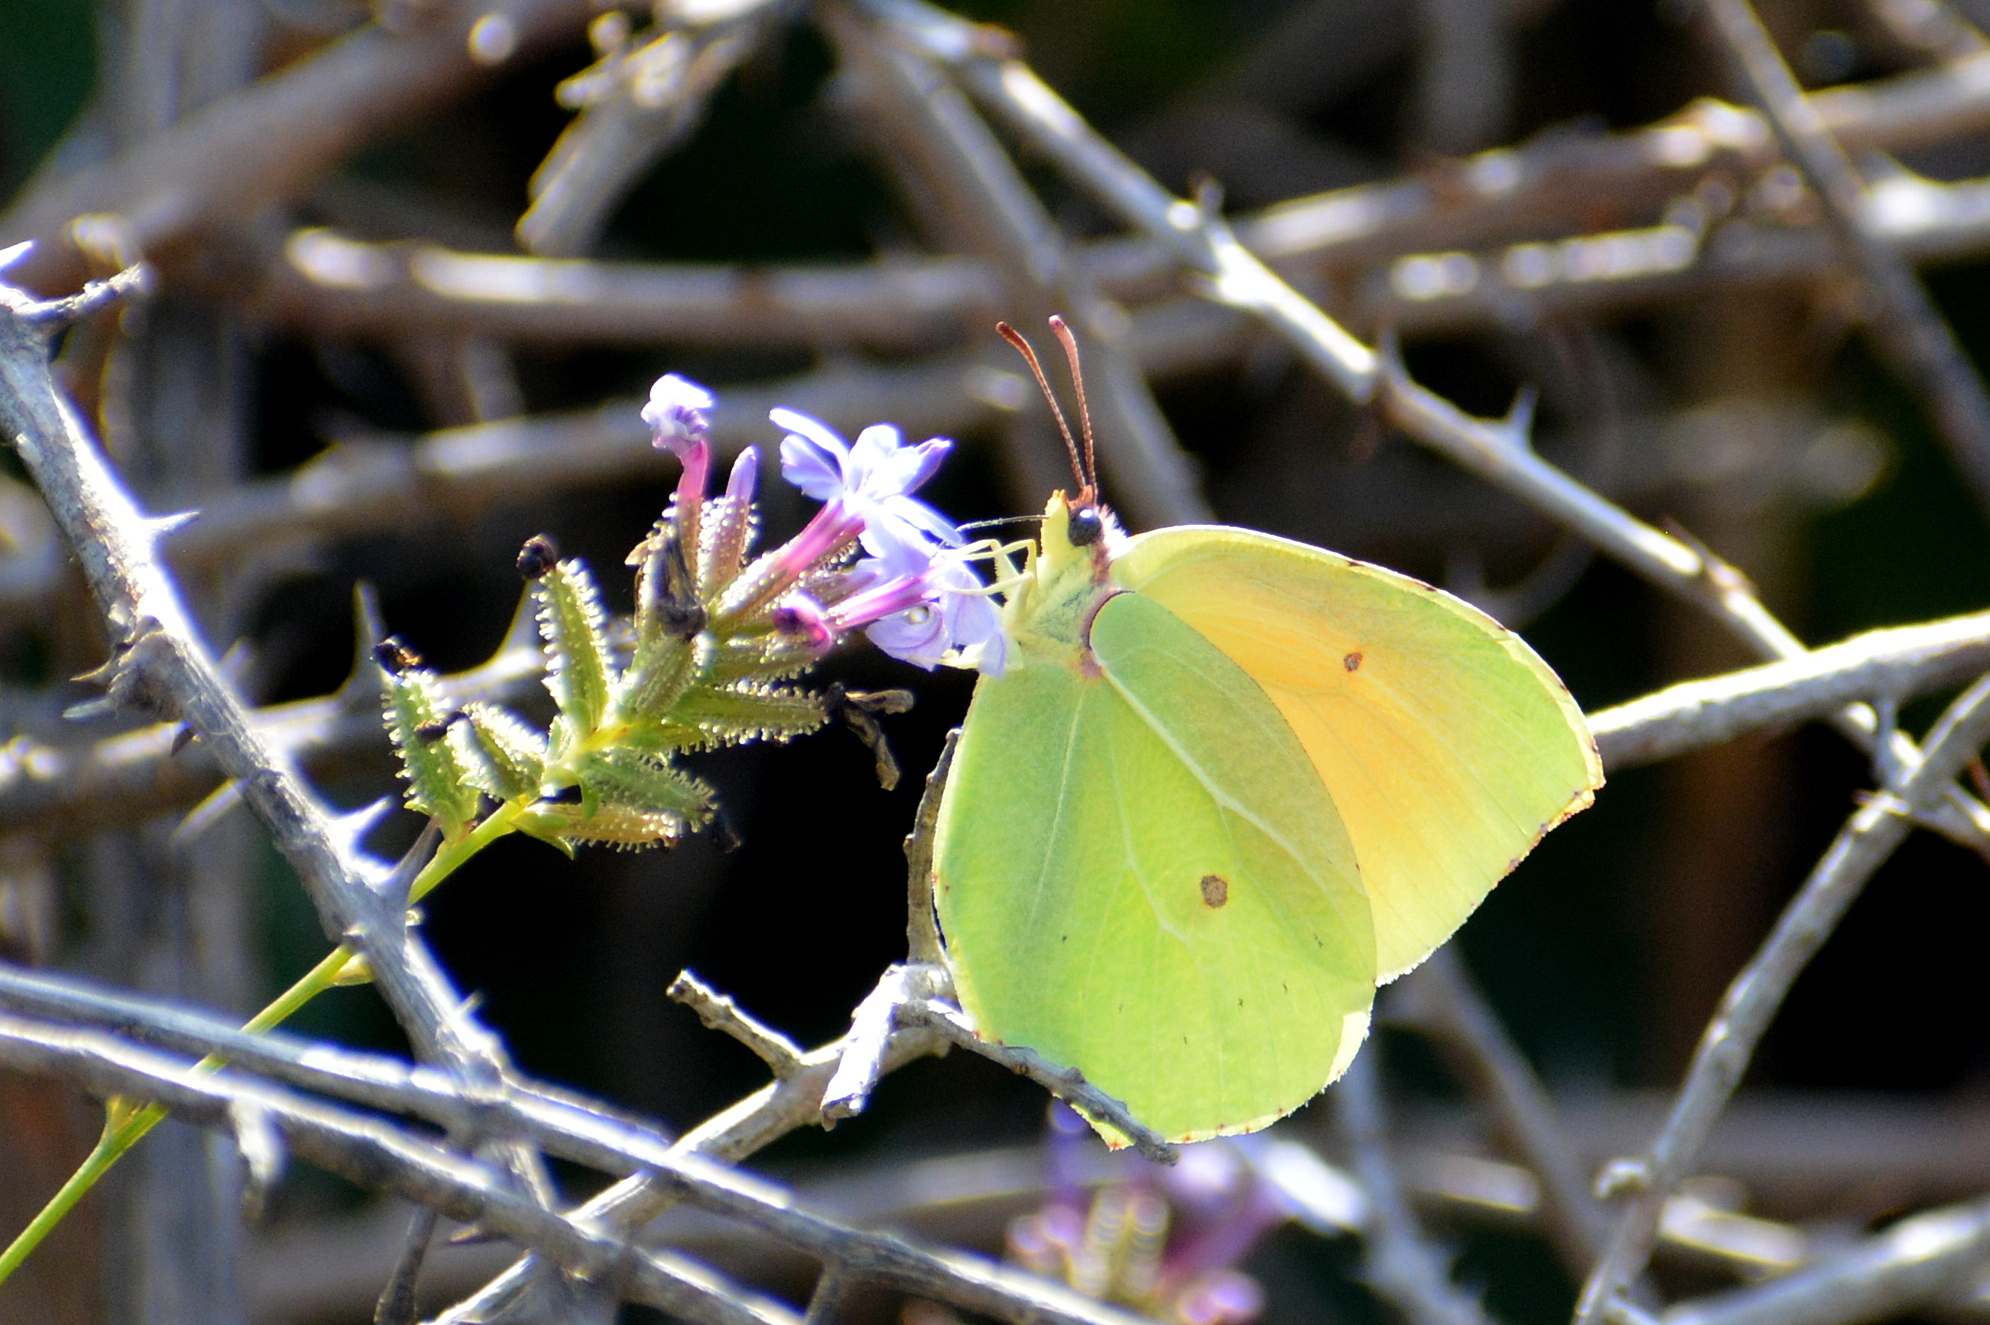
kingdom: Animalia
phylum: Arthropoda
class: Insecta
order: Lepidoptera
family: Pieridae
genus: Gonepteryx
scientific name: Gonepteryx cleopatra
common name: Cleopatra
